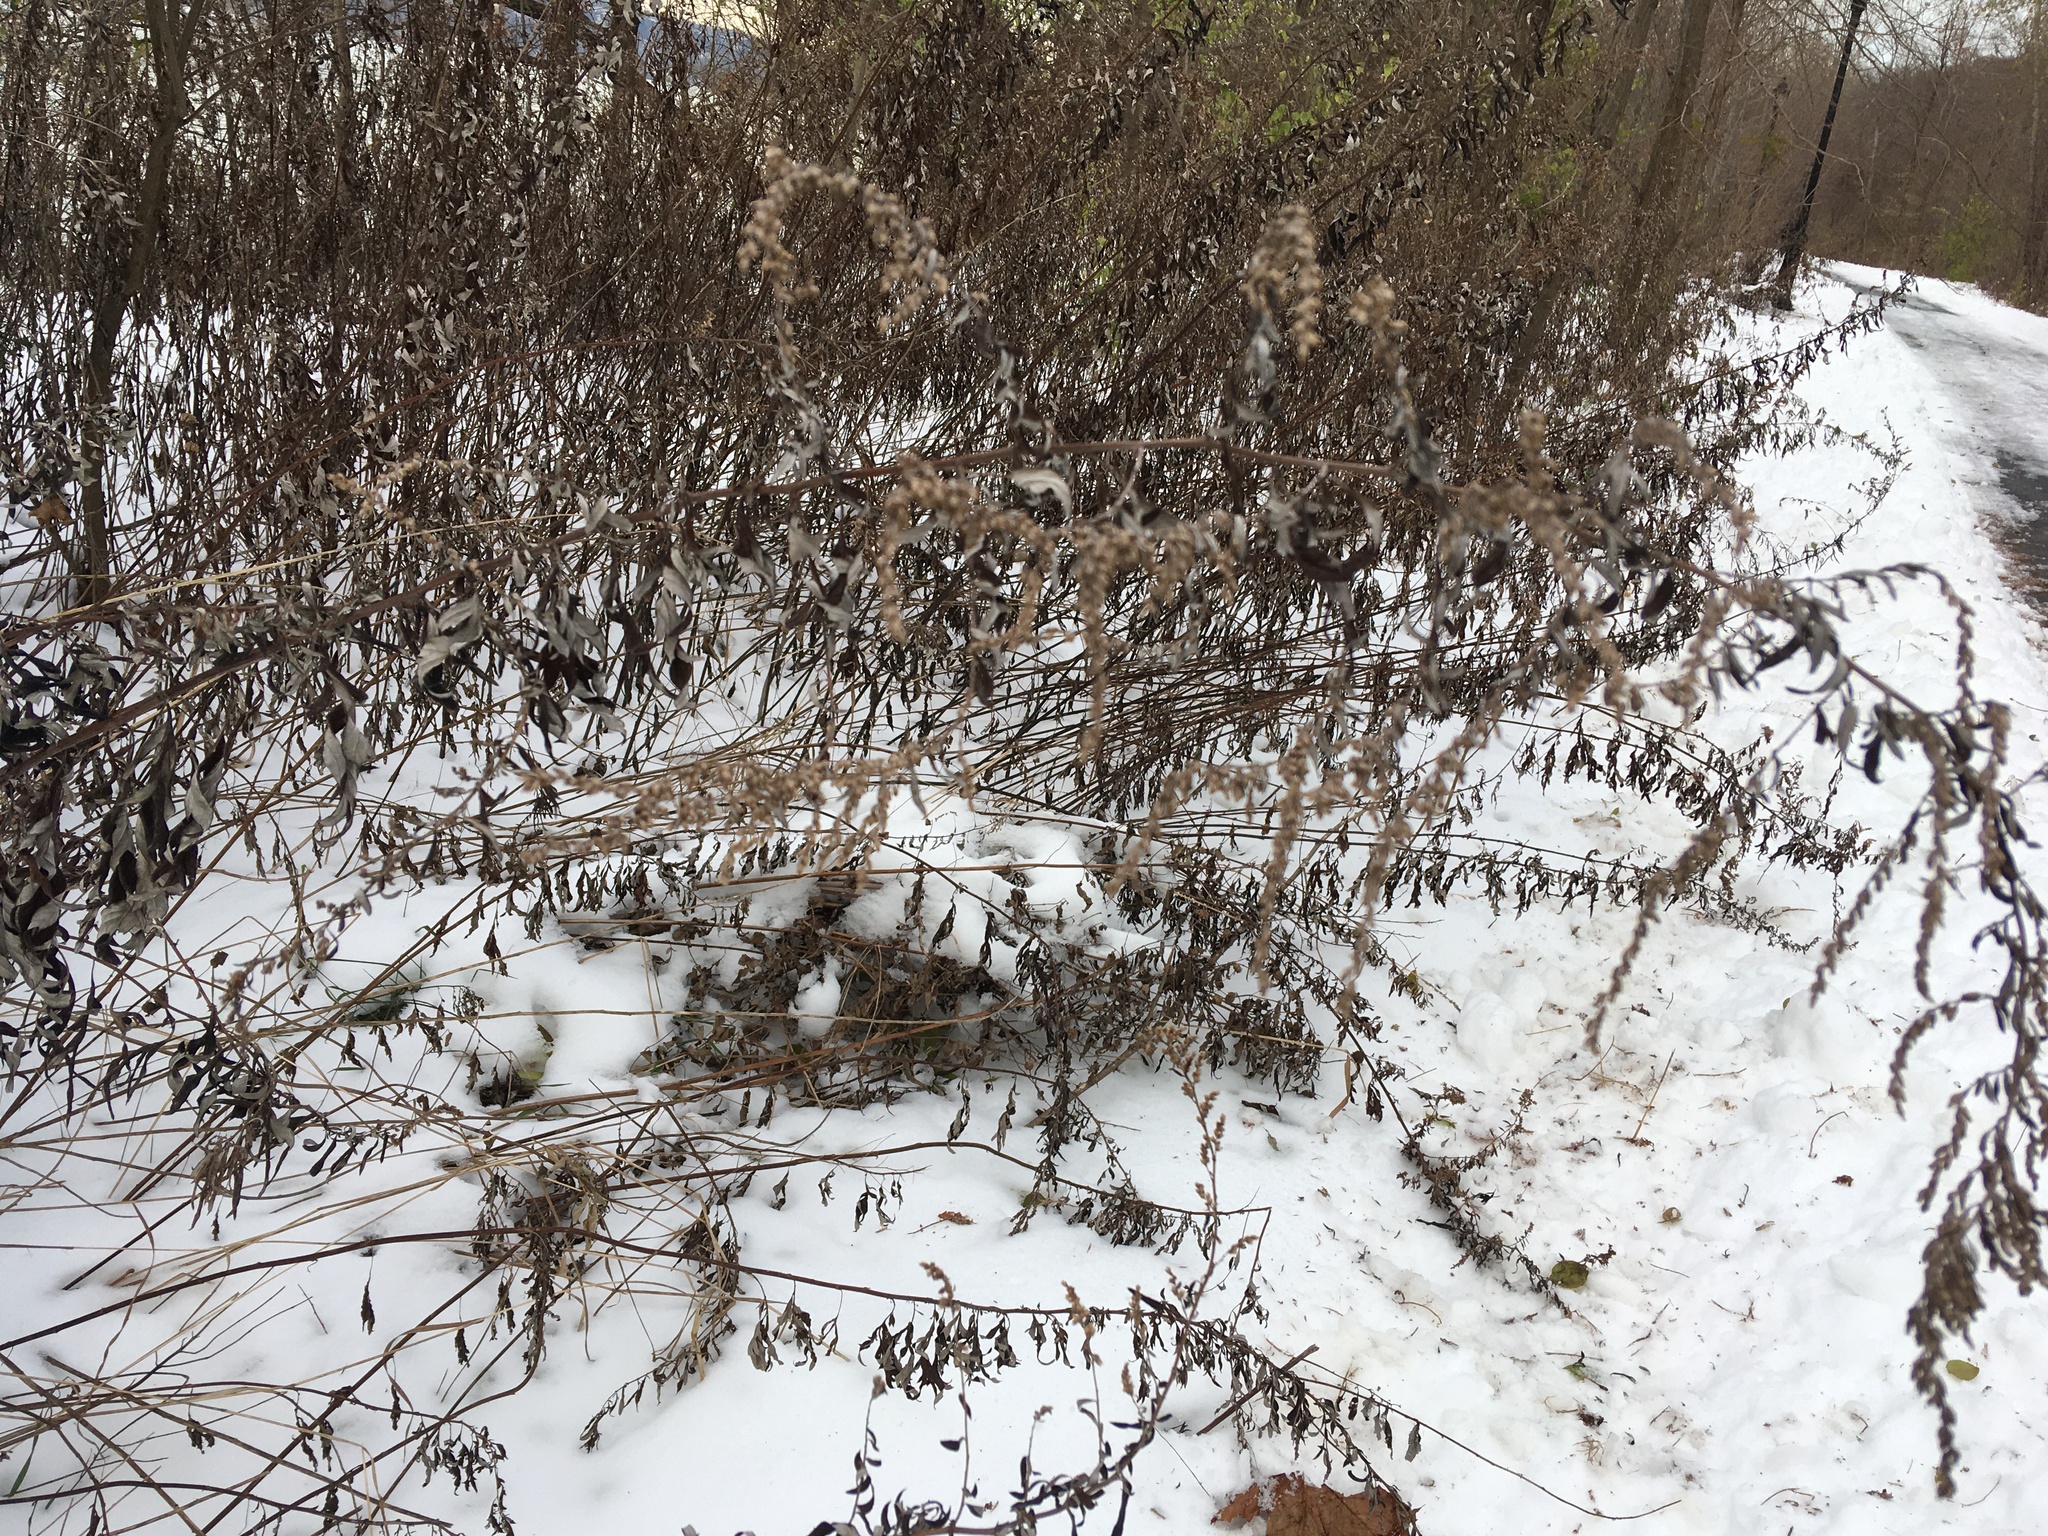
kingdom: Plantae
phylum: Tracheophyta
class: Magnoliopsida
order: Asterales
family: Asteraceae
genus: Artemisia
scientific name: Artemisia vulgaris
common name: Mugwort
